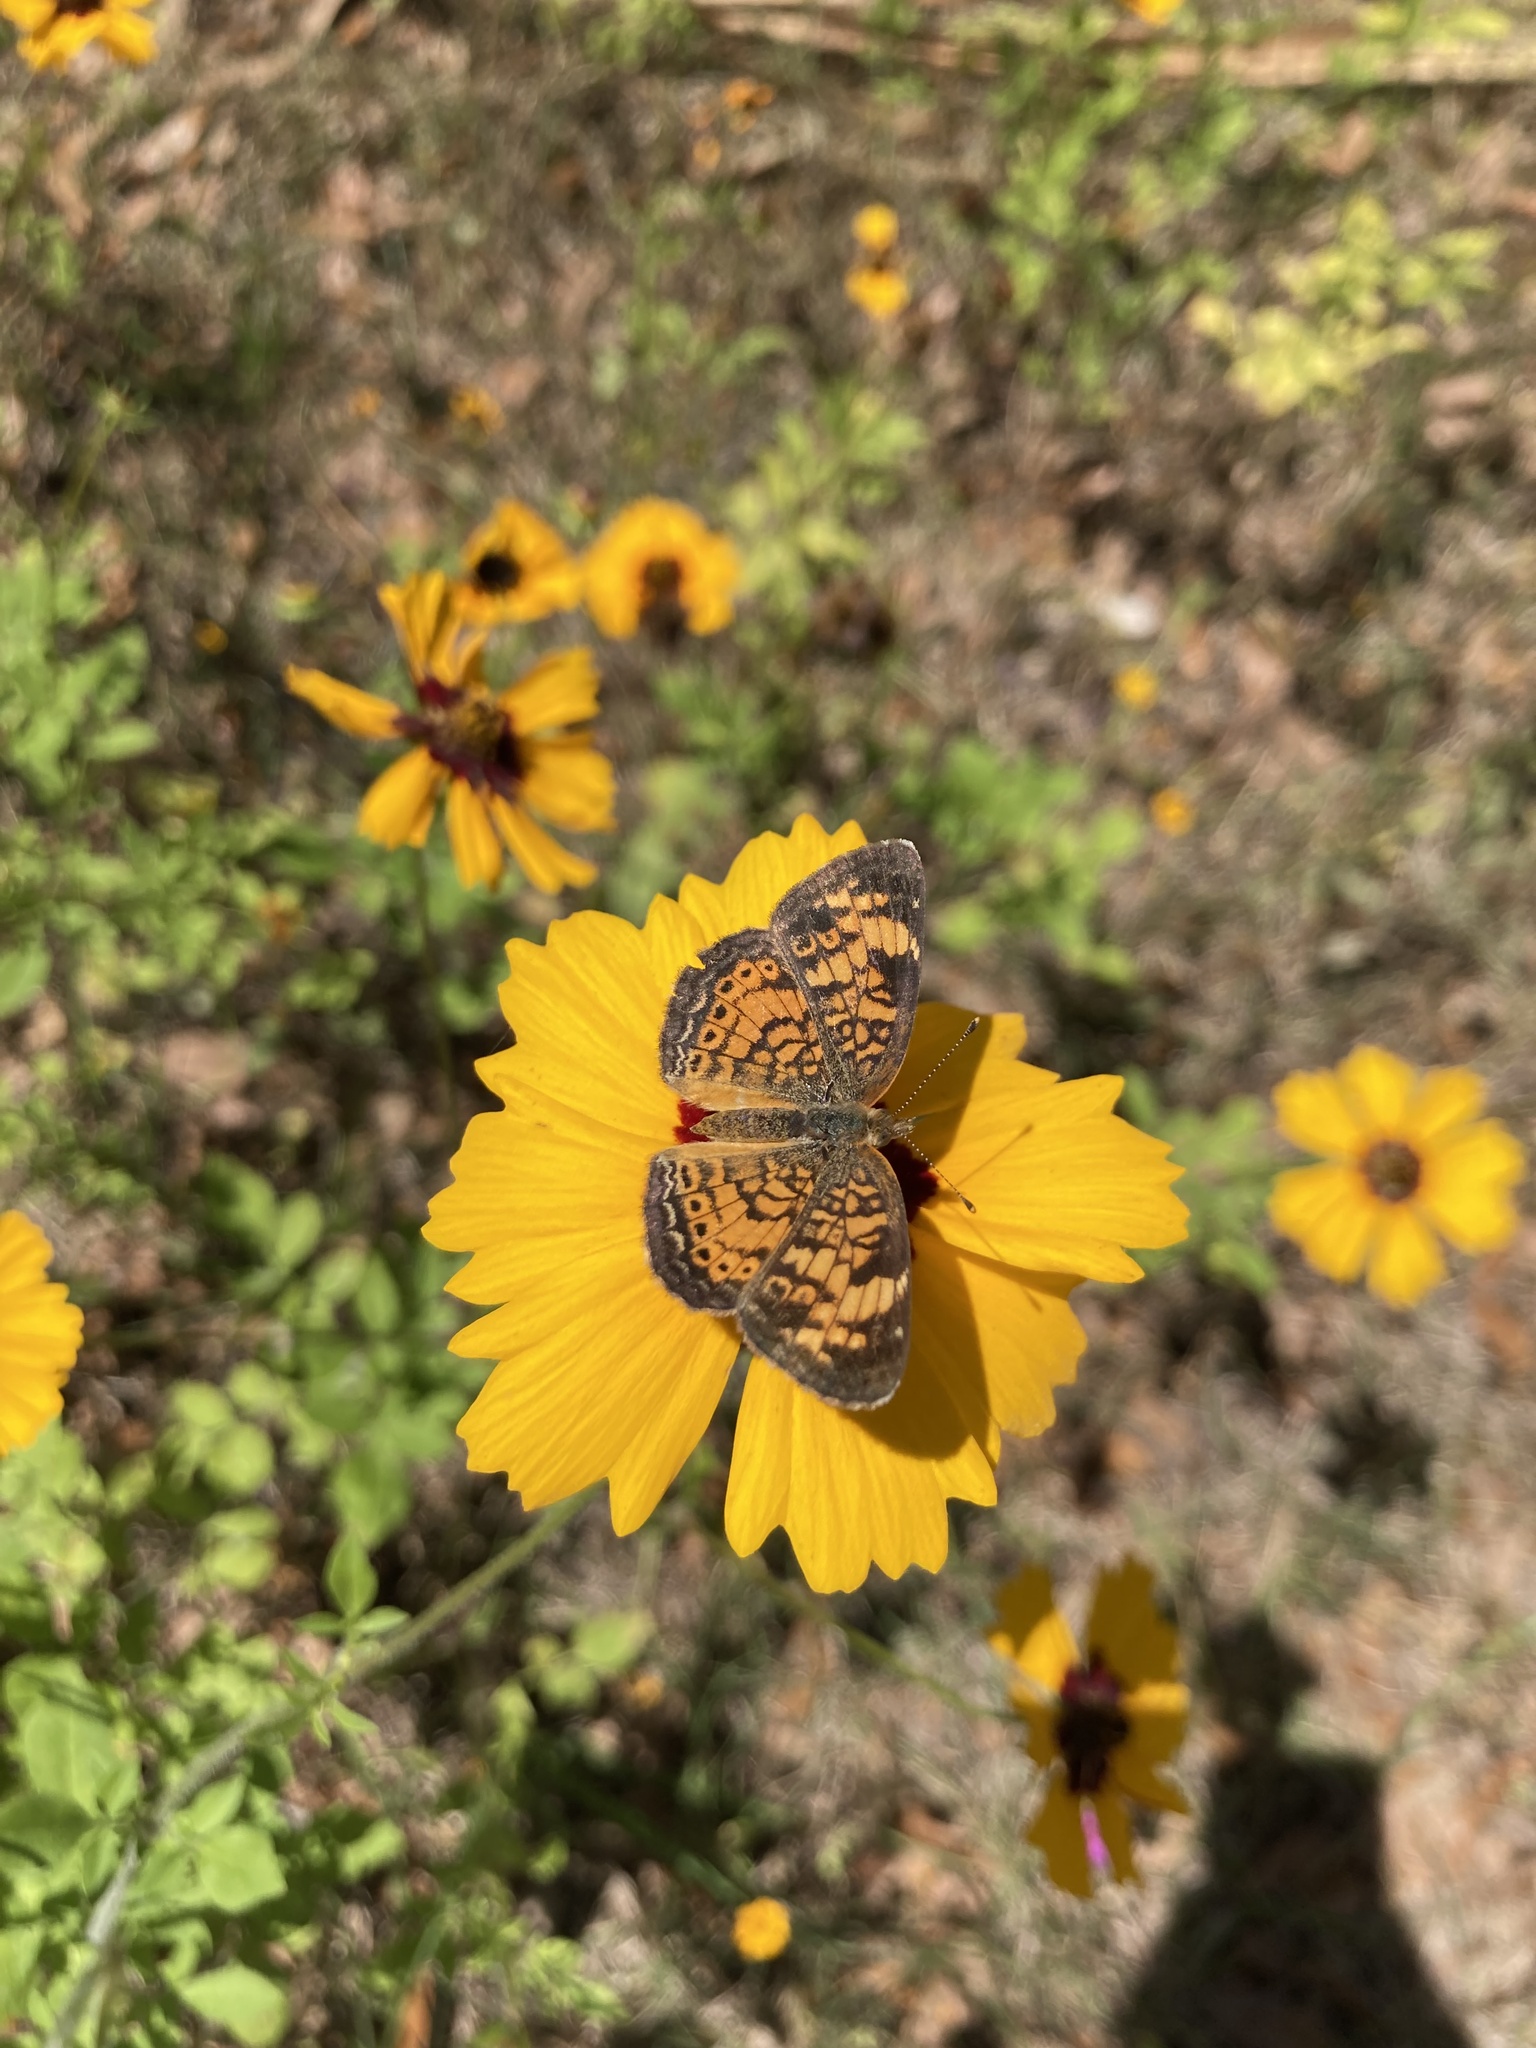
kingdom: Animalia
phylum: Arthropoda
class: Insecta
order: Lepidoptera
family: Nymphalidae
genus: Phyciodes
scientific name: Phyciodes tharos
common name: Pearl crescent
